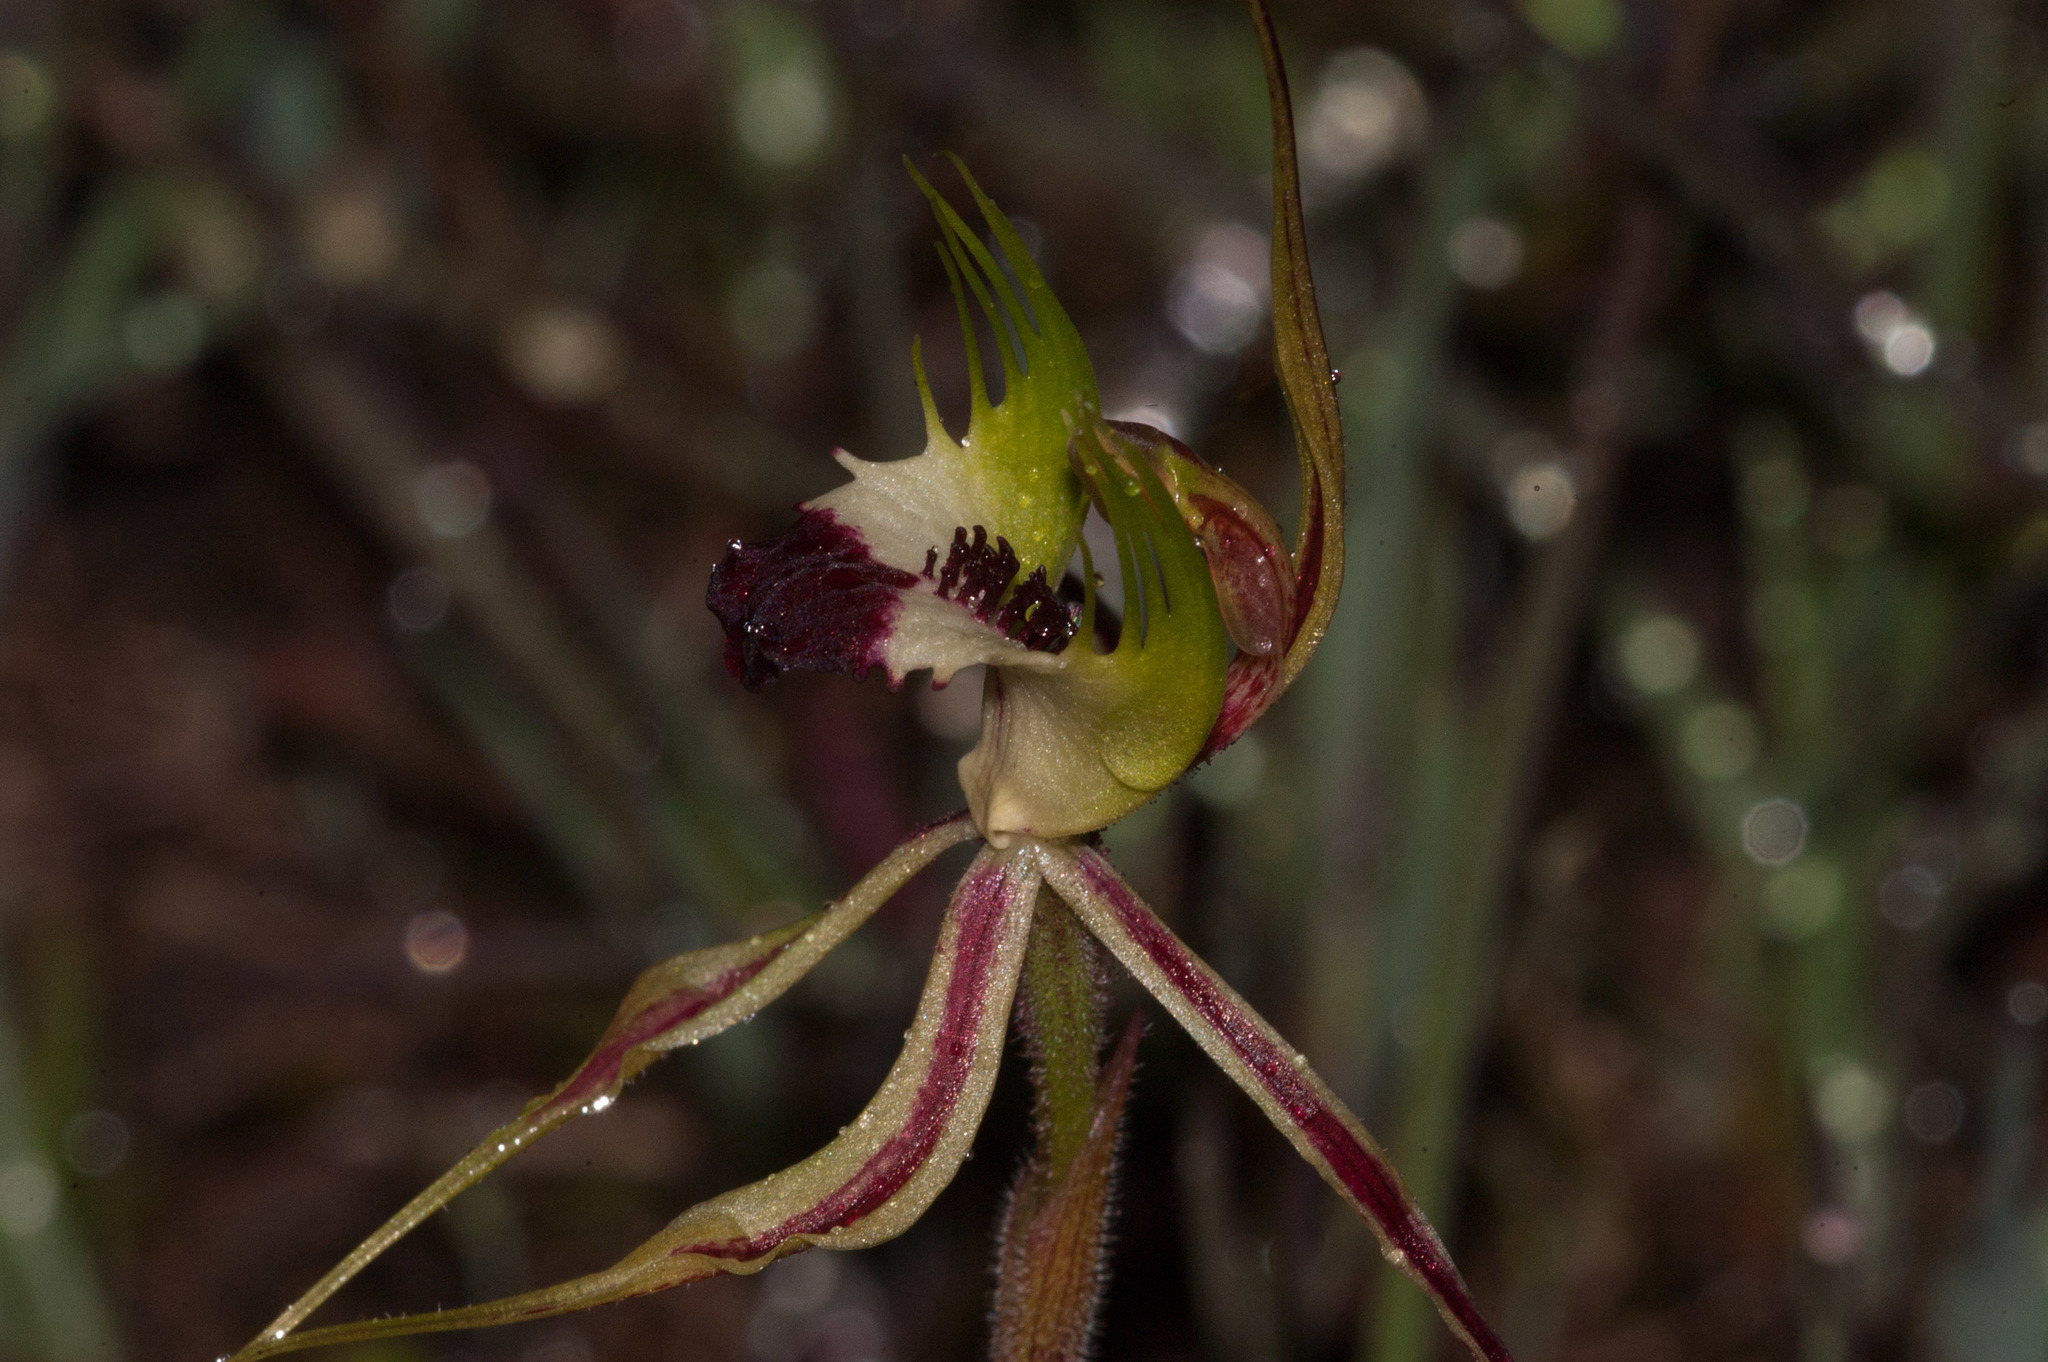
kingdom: Plantae
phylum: Tracheophyta
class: Liliopsida
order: Asparagales
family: Orchidaceae
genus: Caladenia
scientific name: Caladenia tentaculata
